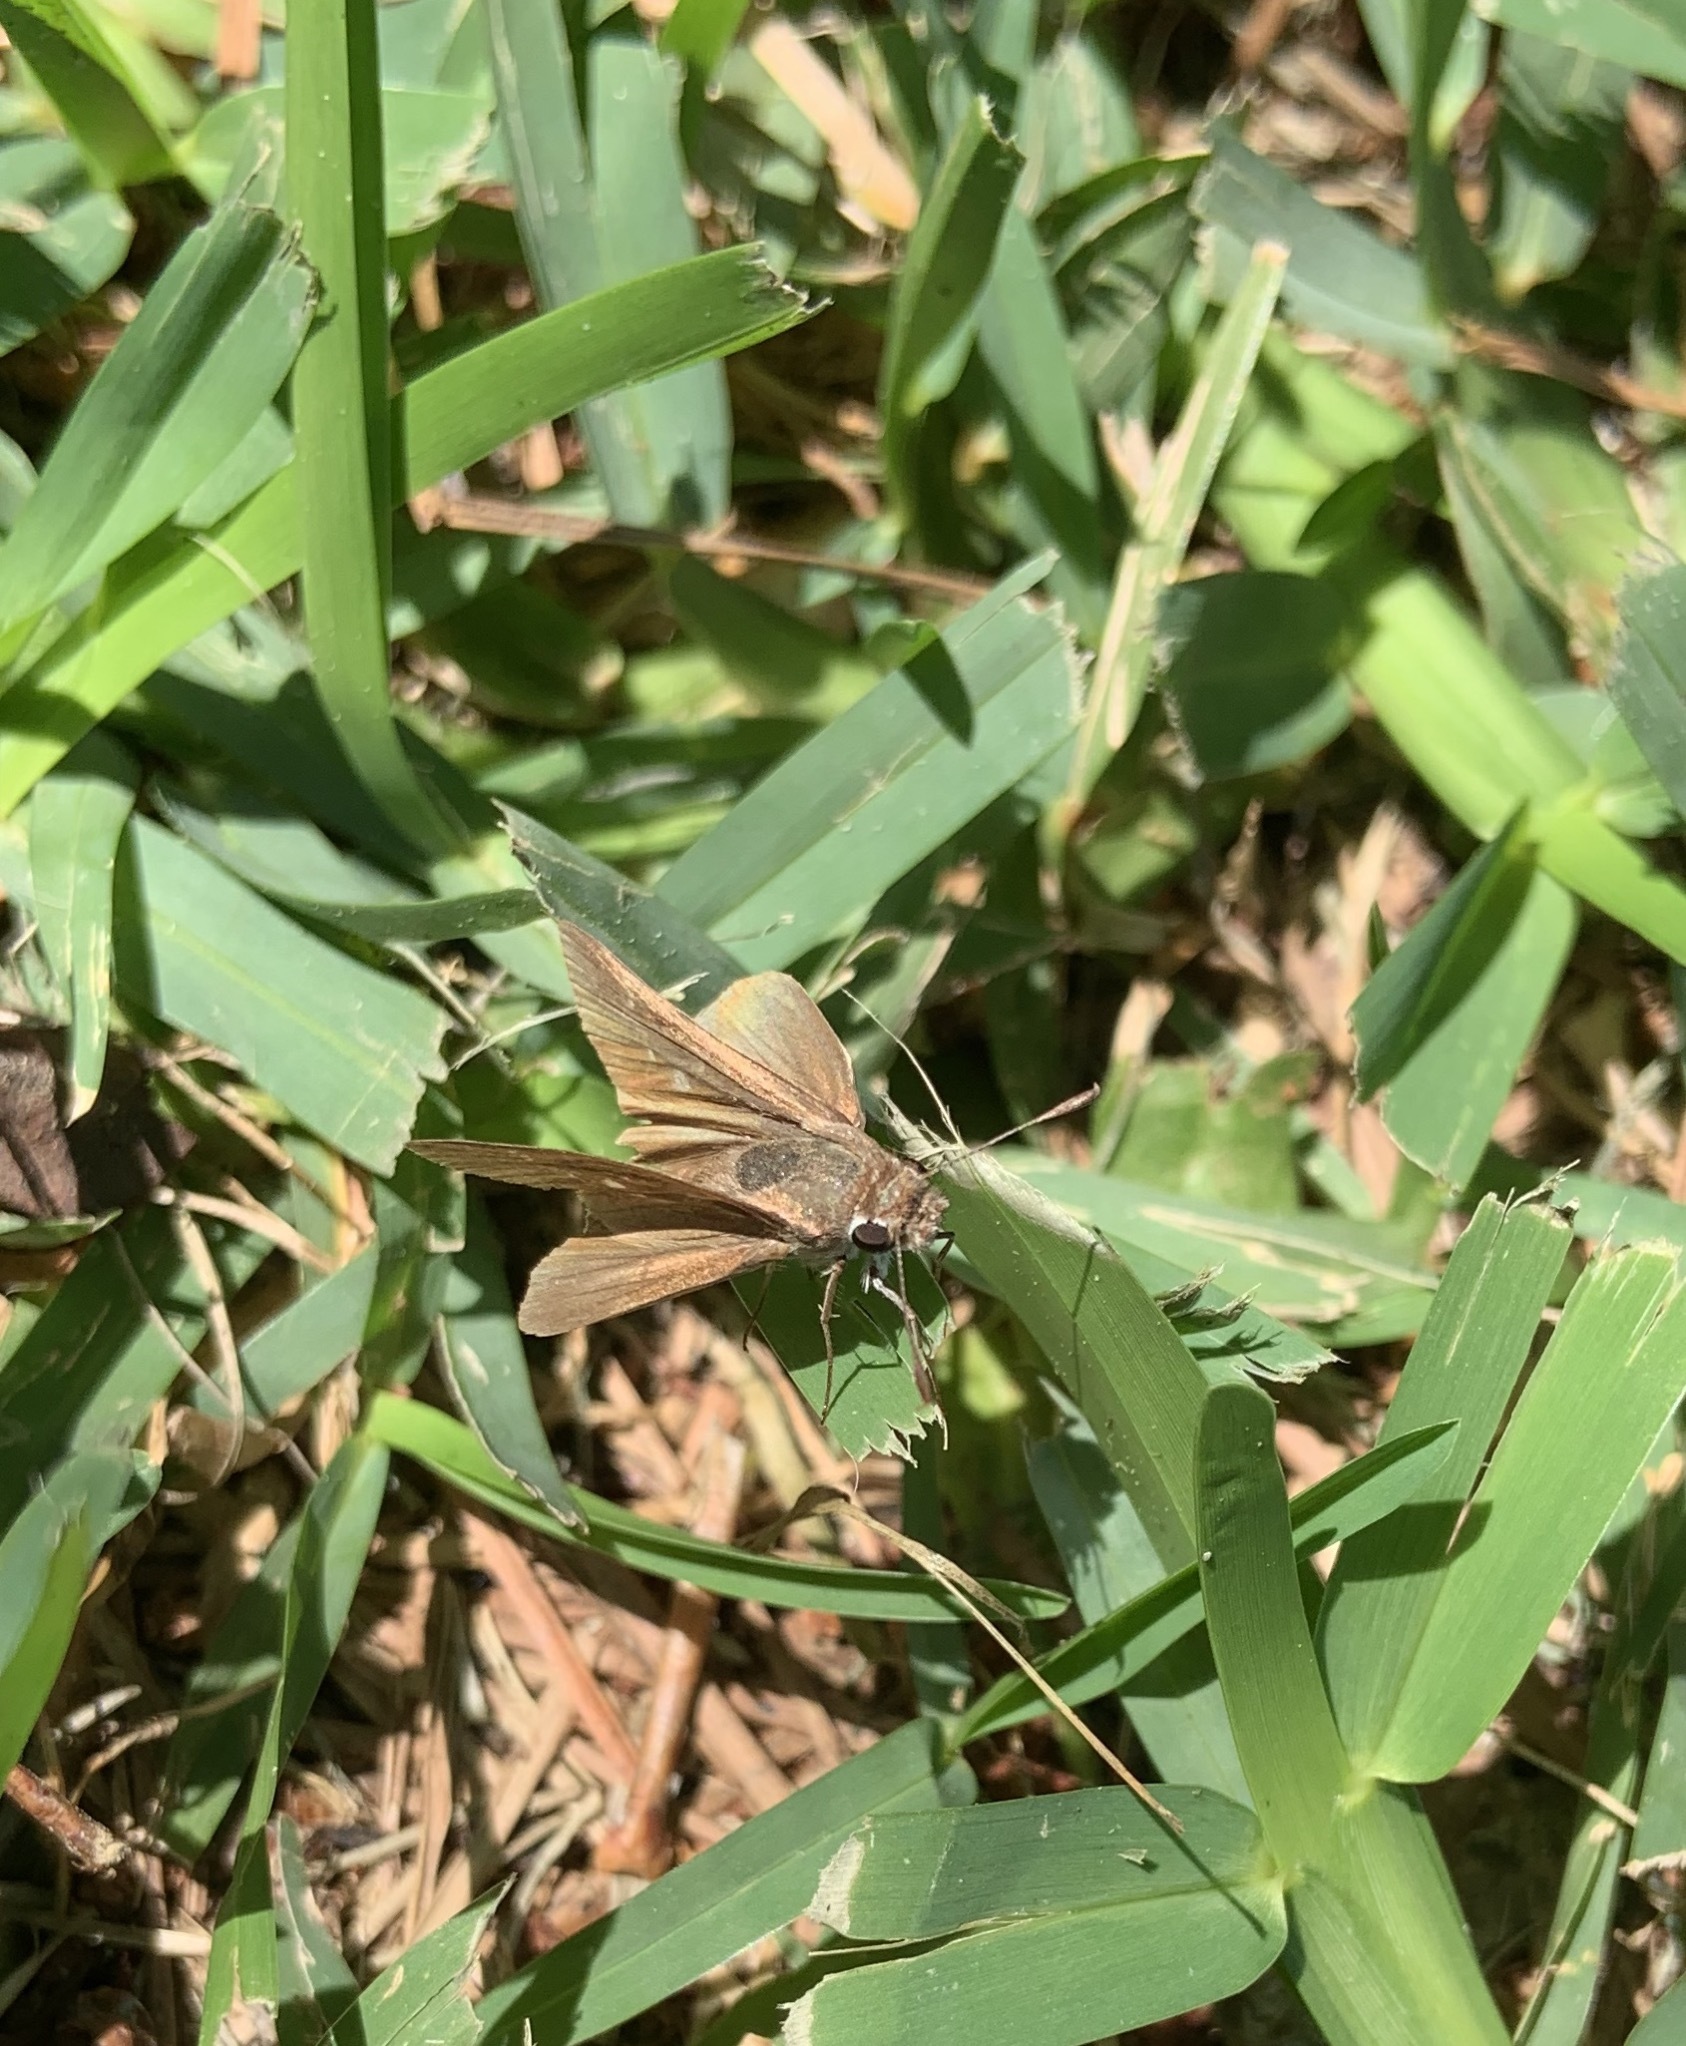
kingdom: Animalia
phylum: Arthropoda
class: Insecta
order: Lepidoptera
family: Hesperiidae
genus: Lerodea
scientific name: Lerodea eufala
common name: Eufala skipper
